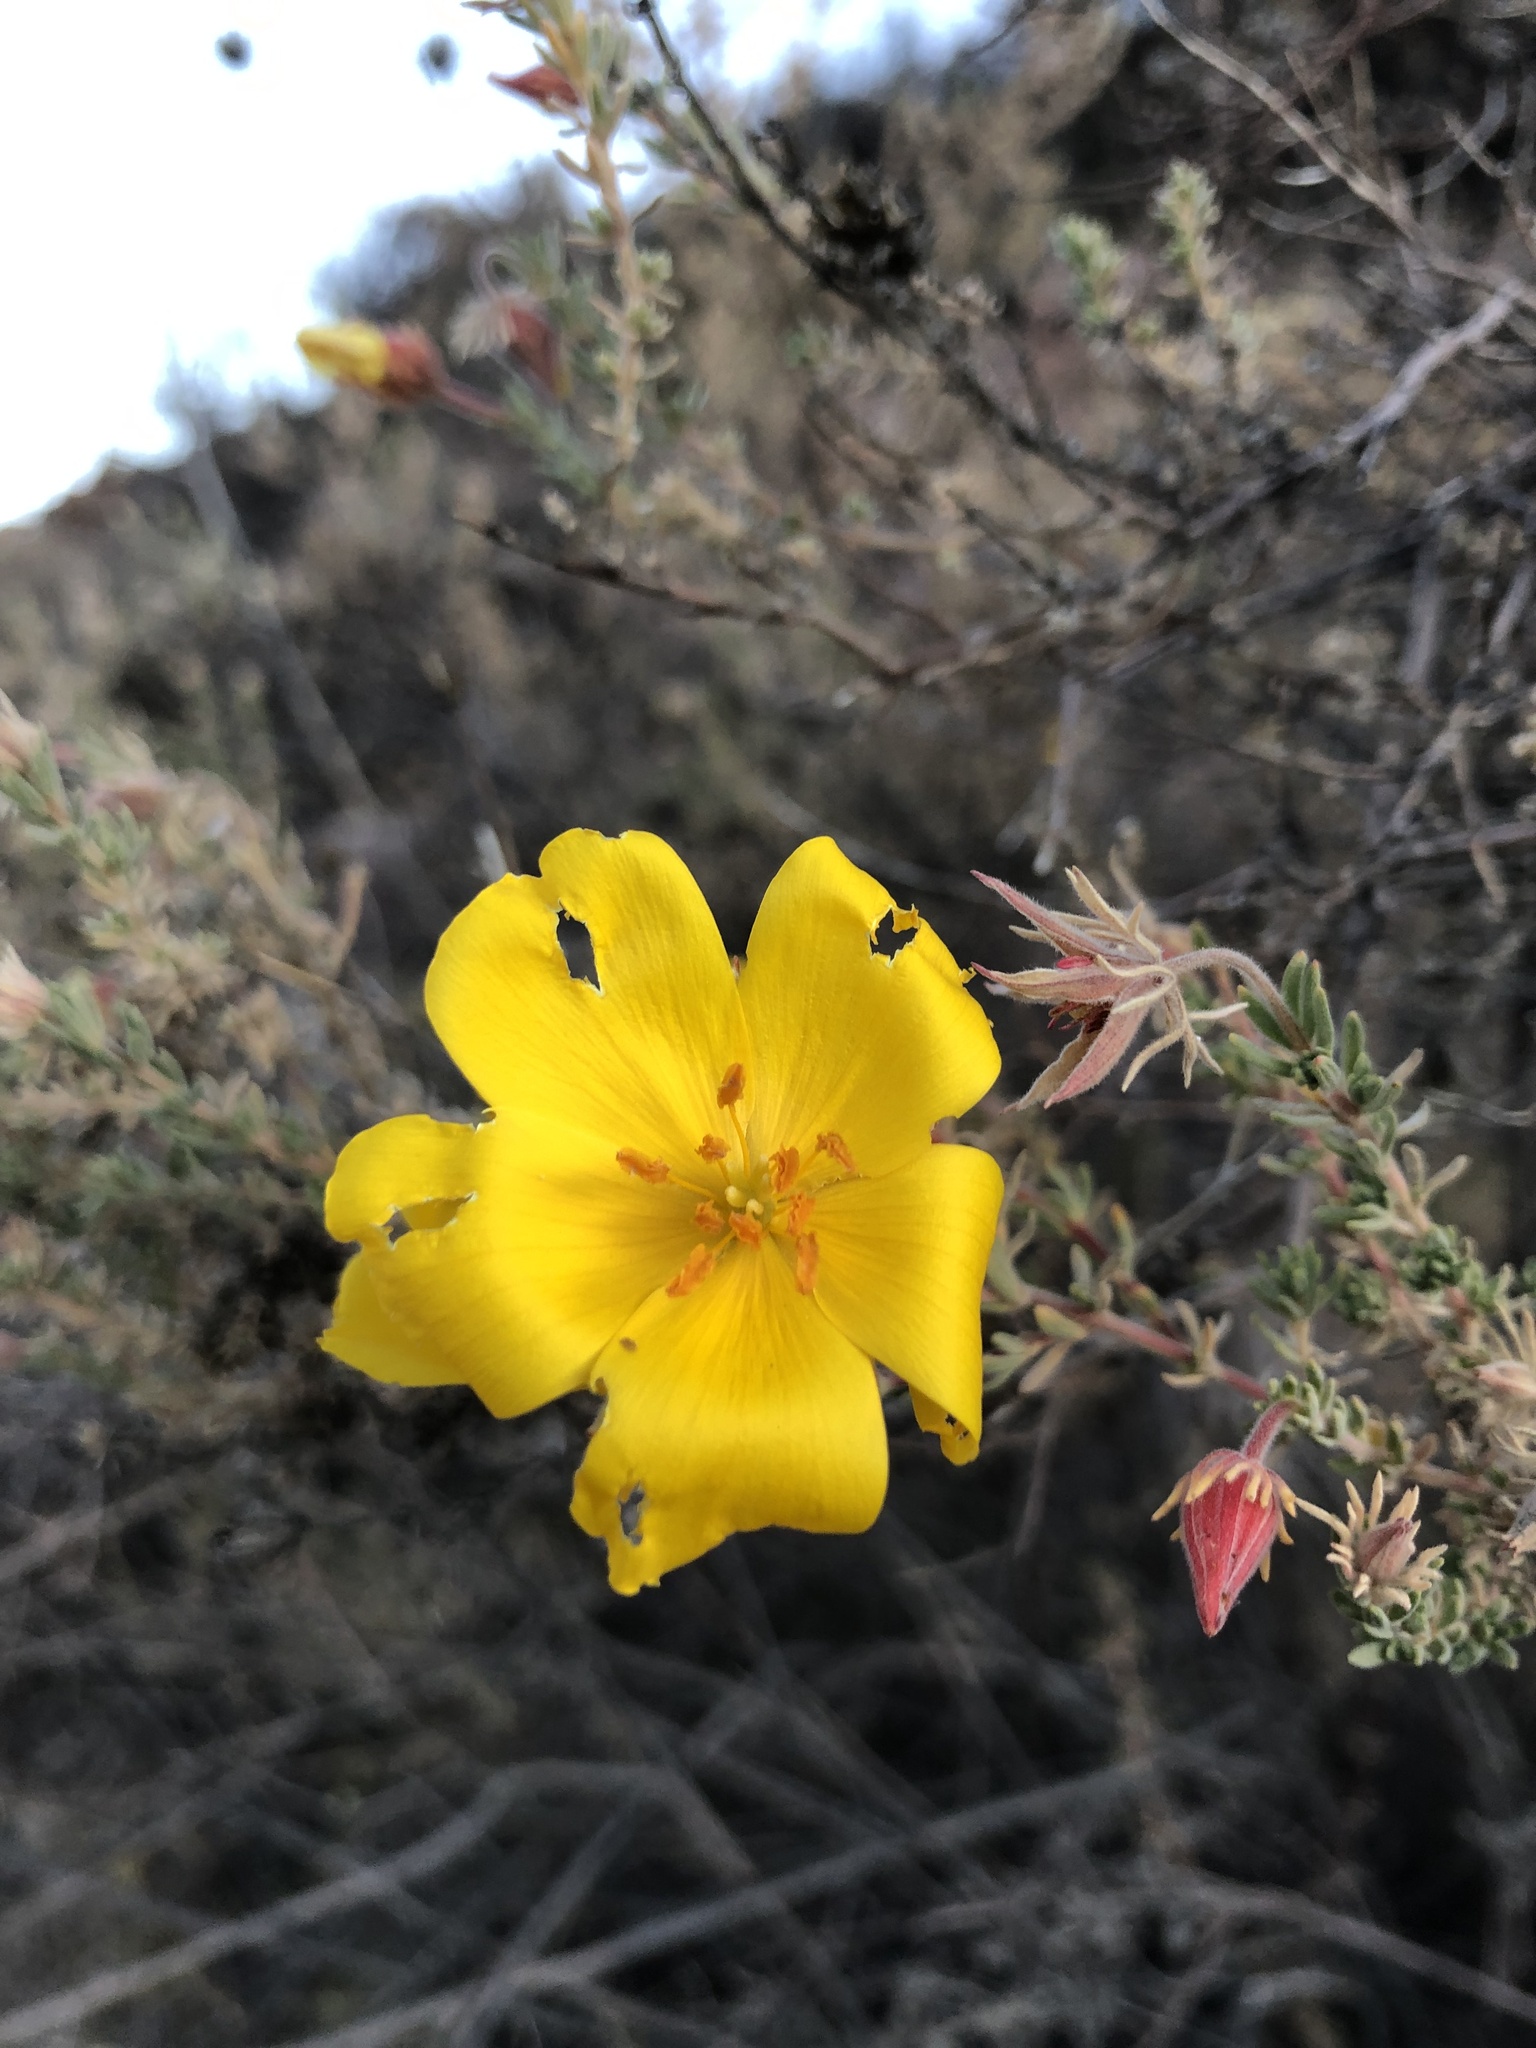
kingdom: Plantae
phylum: Tracheophyta
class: Magnoliopsida
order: Geraniales
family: Vivianiaceae
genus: Balbisia
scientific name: Balbisia microphylla
